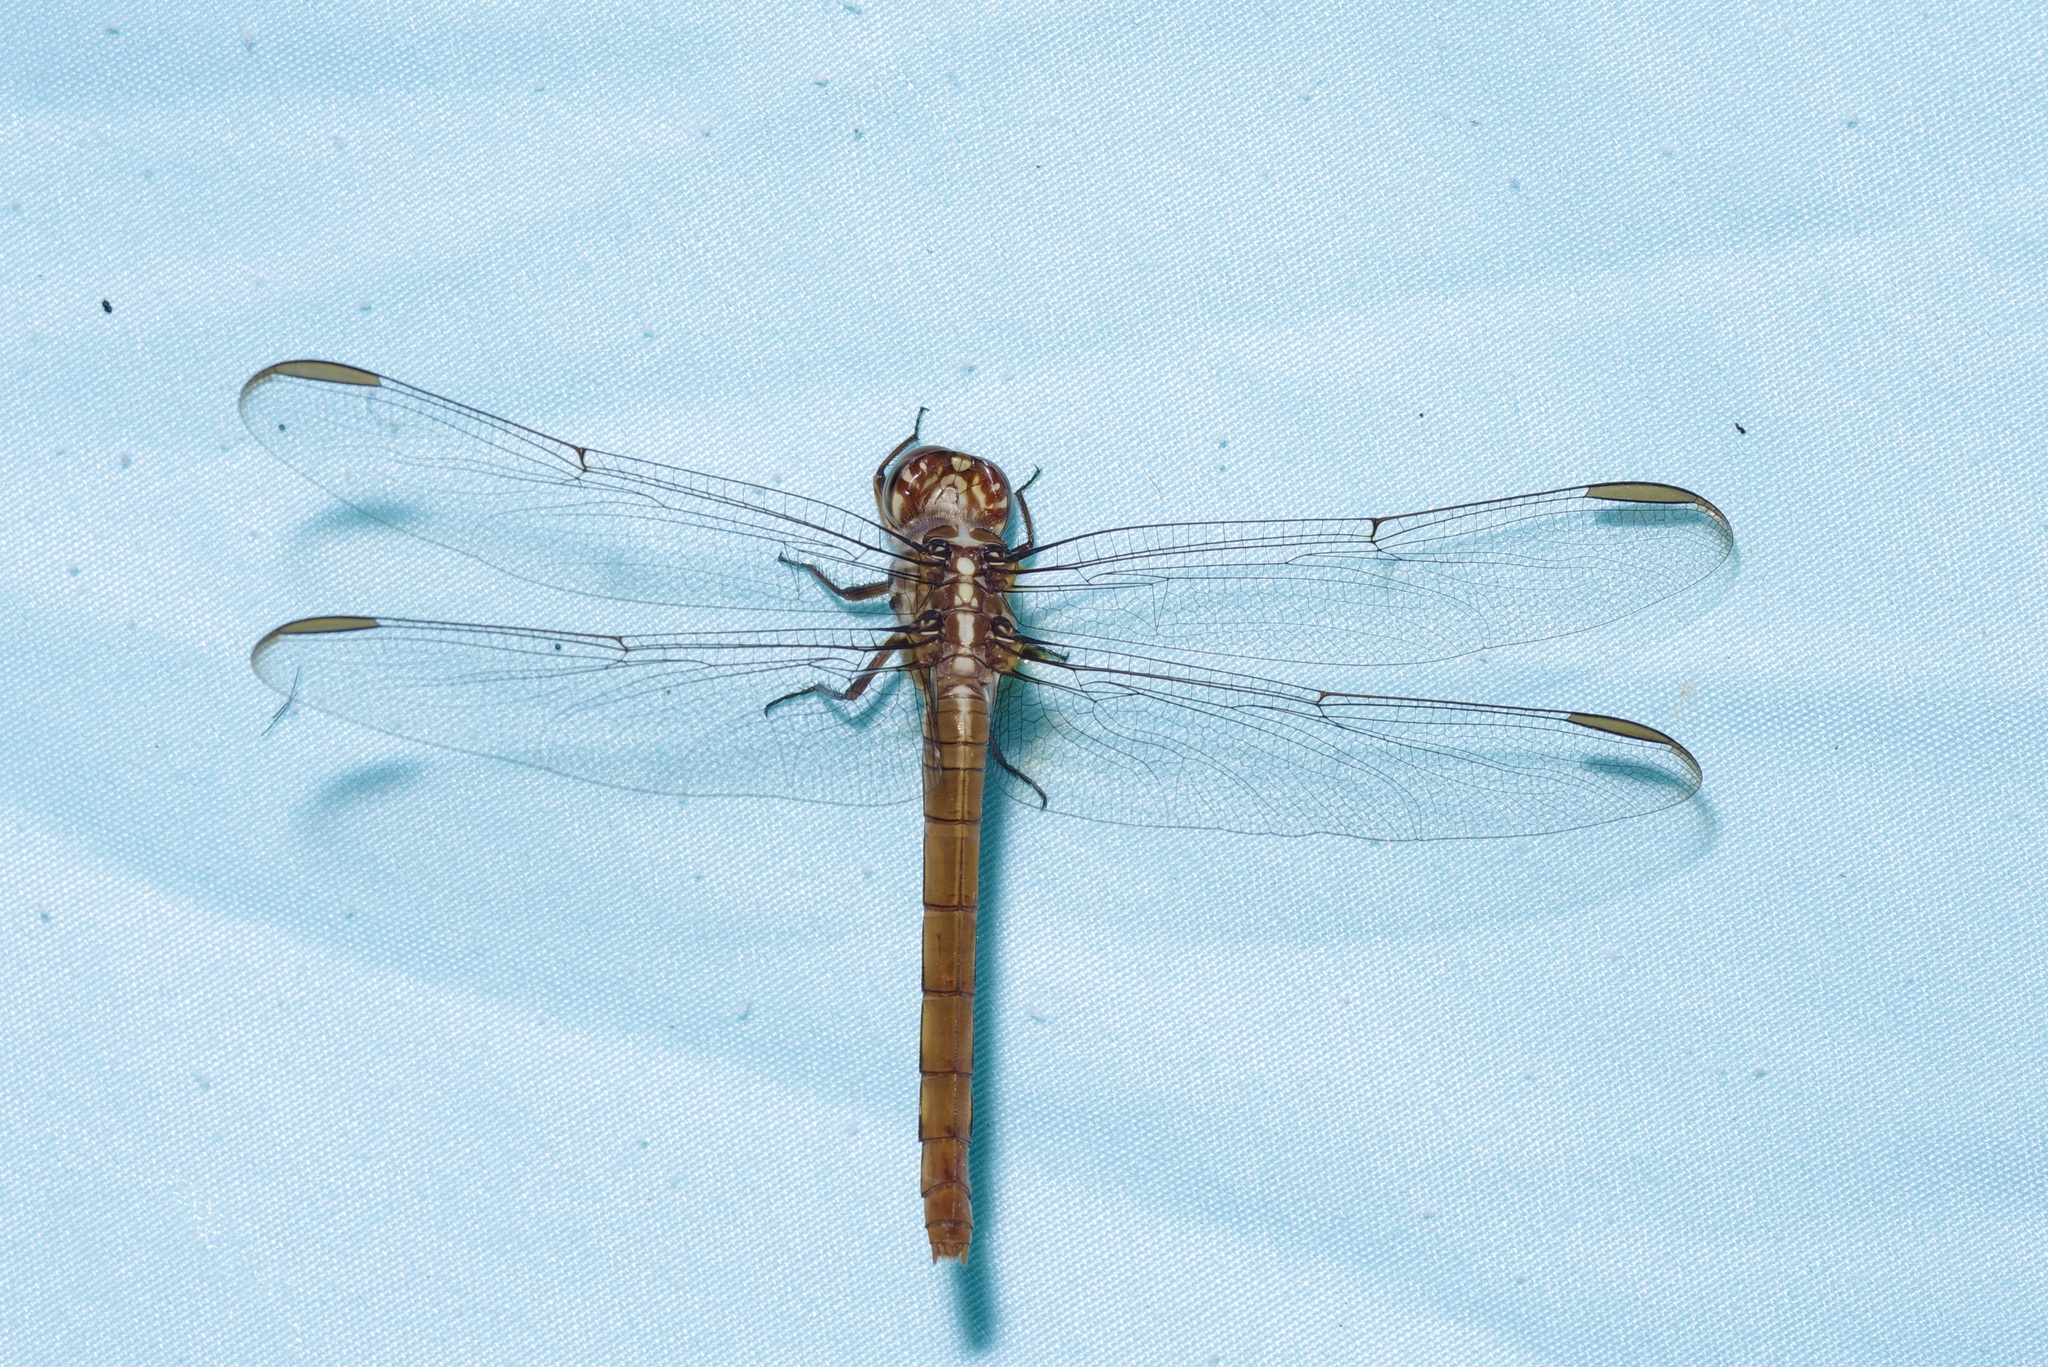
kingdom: Animalia
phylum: Arthropoda
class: Insecta
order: Odonata
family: Libellulidae
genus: Orthemis
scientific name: Orthemis ferruginea
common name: Roseate skimmer
